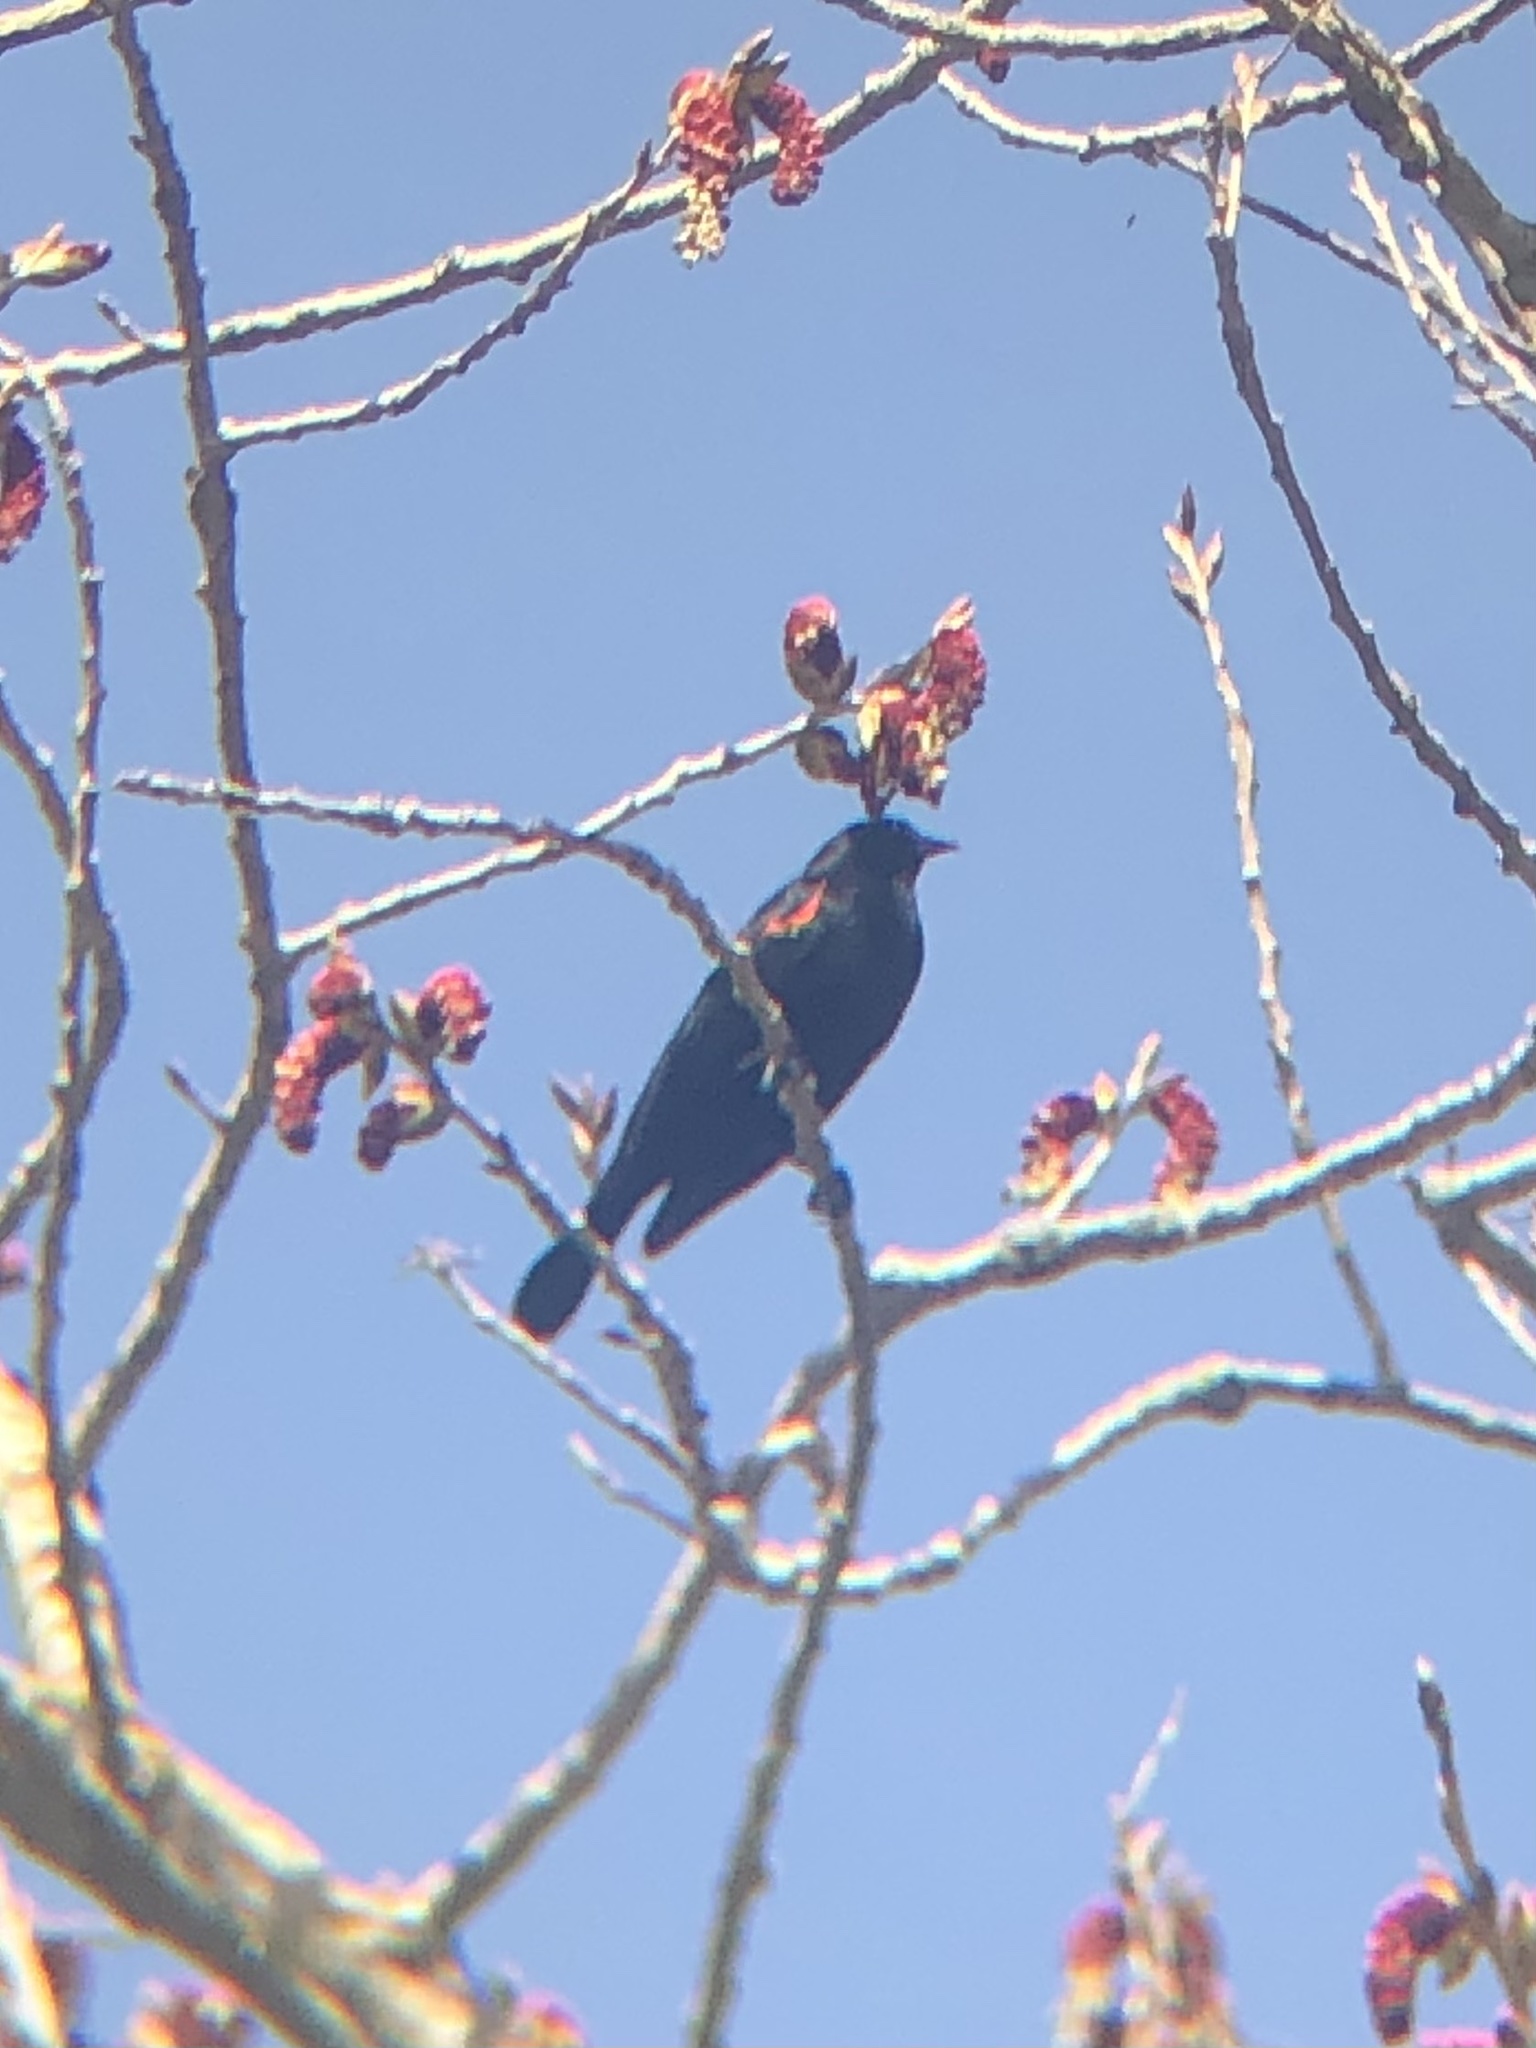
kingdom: Animalia
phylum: Chordata
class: Aves
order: Passeriformes
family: Icteridae
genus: Agelaius
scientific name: Agelaius phoeniceus
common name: Red-winged blackbird
